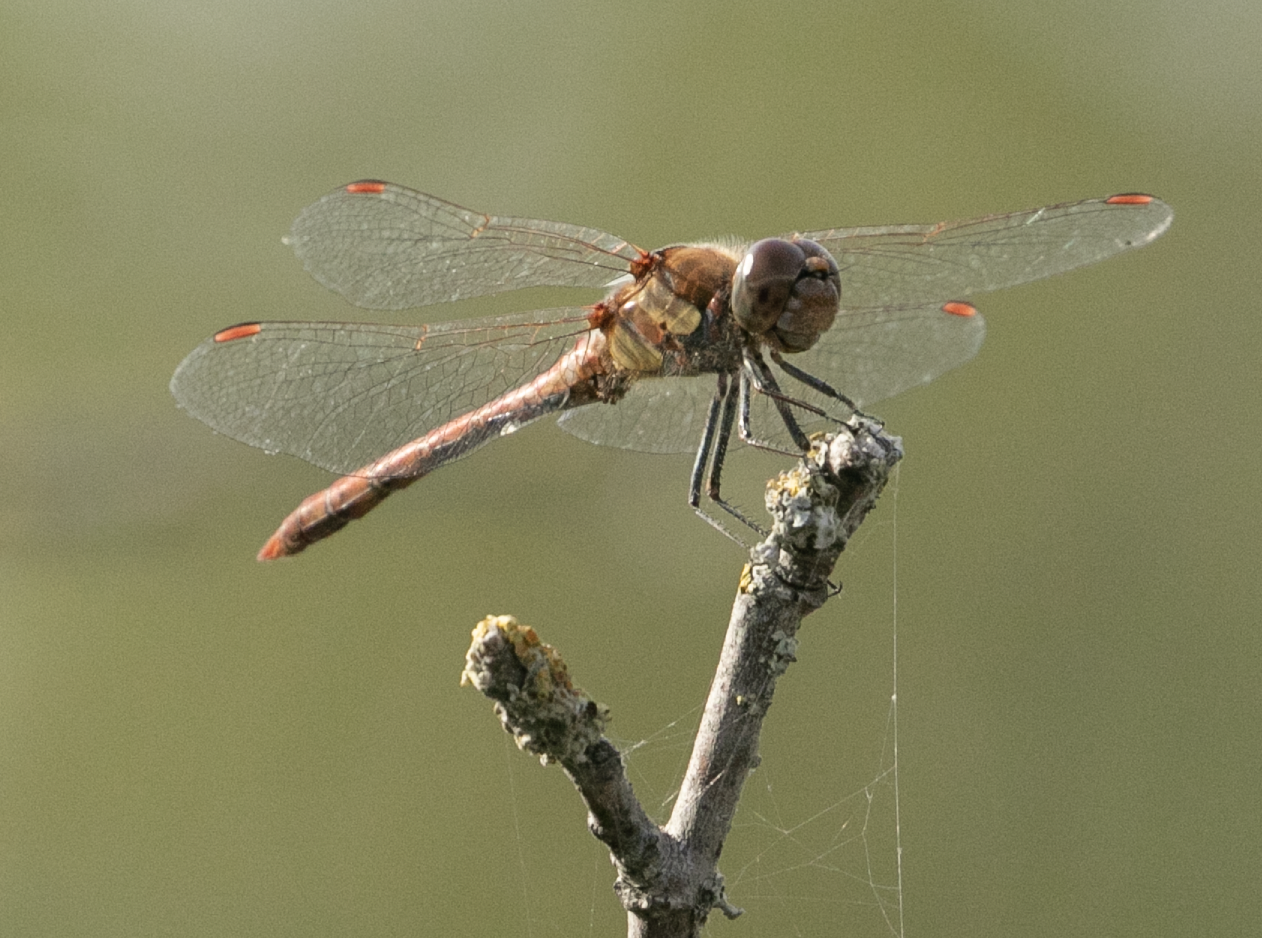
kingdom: Animalia
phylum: Arthropoda
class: Insecta
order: Odonata
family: Libellulidae
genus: Sympetrum
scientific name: Sympetrum striolatum
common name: Common darter
